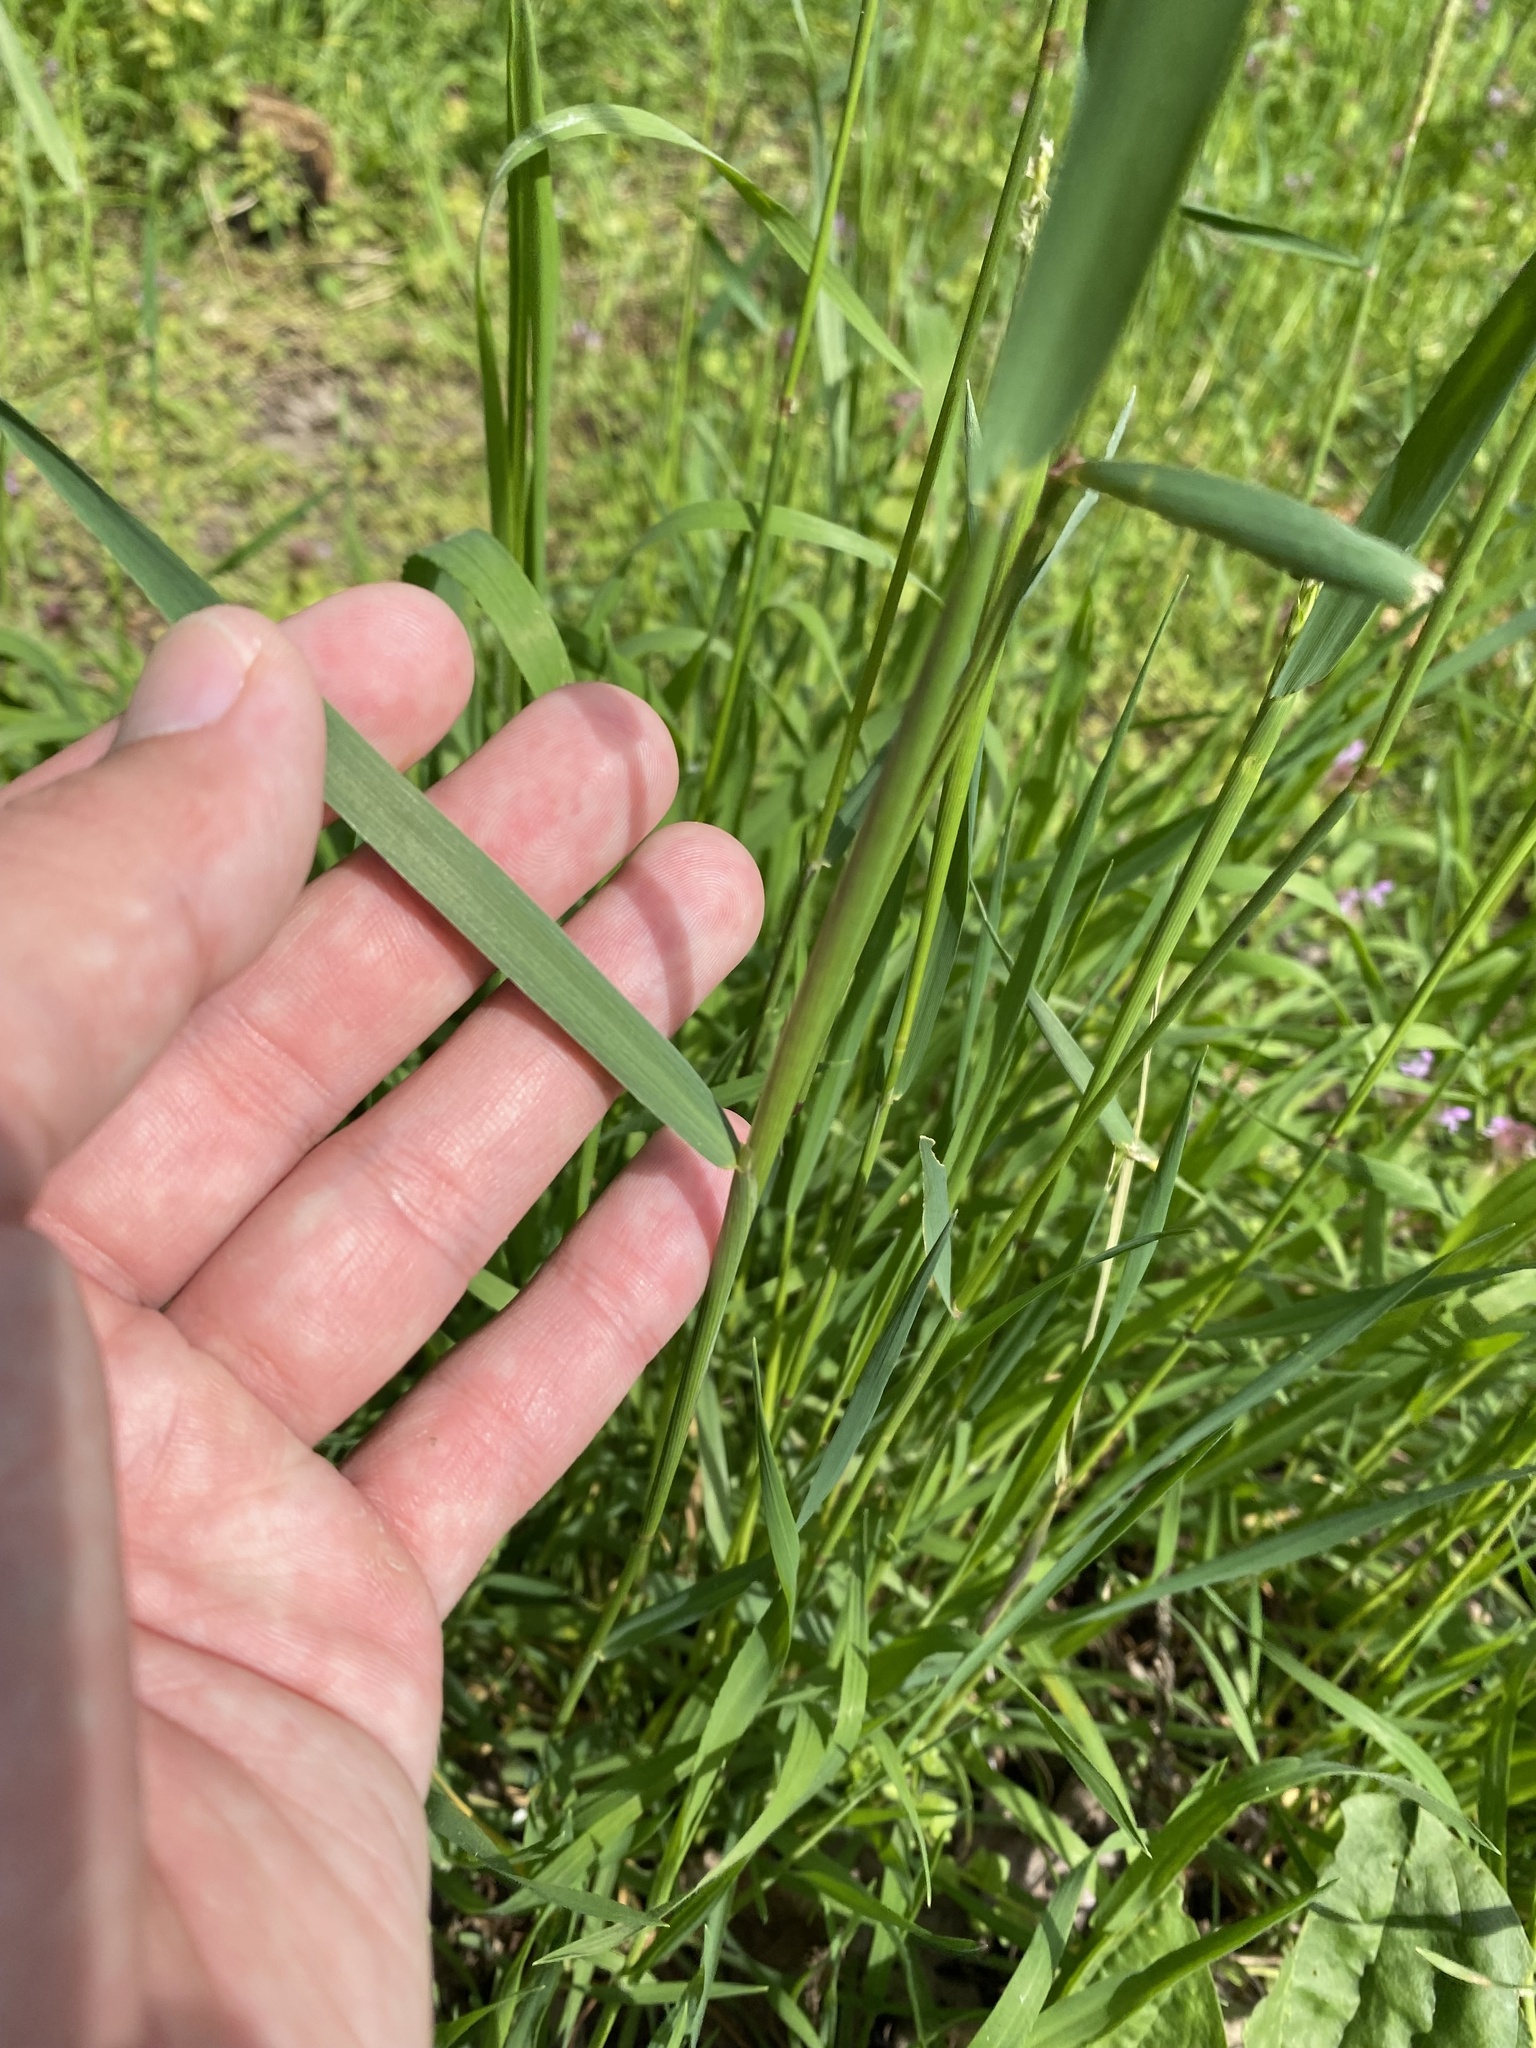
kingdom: Plantae
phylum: Tracheophyta
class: Liliopsida
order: Poales
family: Poaceae
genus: Alopecurus
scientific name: Alopecurus myosuroides
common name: Black-grass
